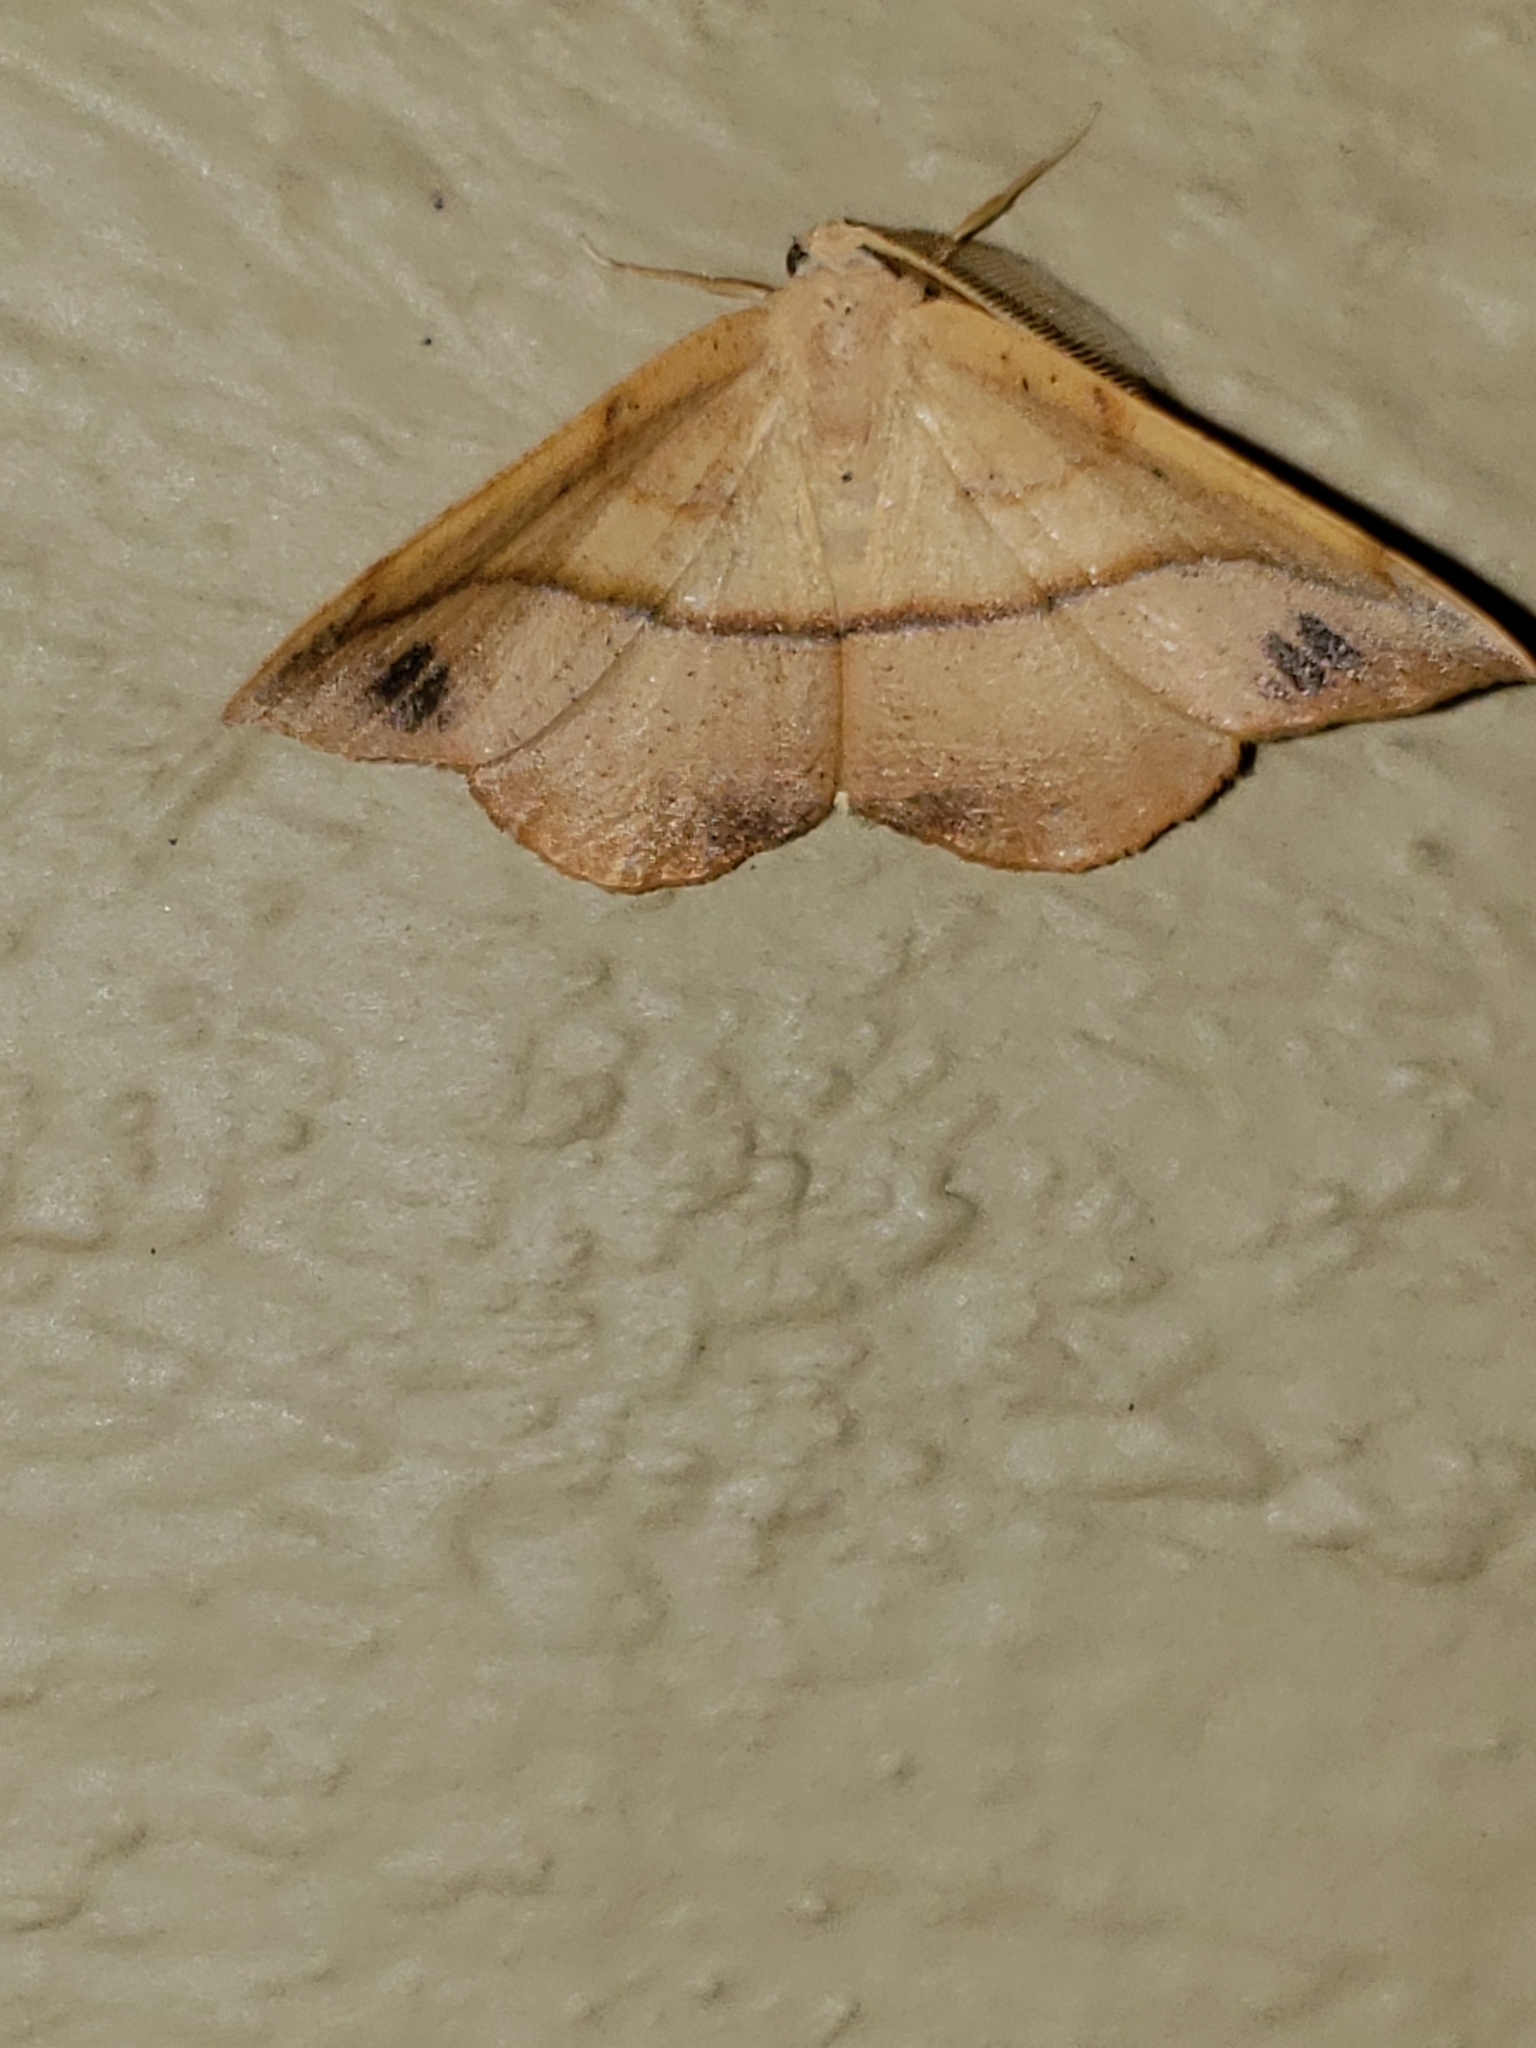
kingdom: Animalia
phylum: Arthropoda
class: Insecta
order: Lepidoptera
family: Geometridae
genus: Patalene
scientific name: Patalene olyzonaria
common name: Juniper geometer moth
